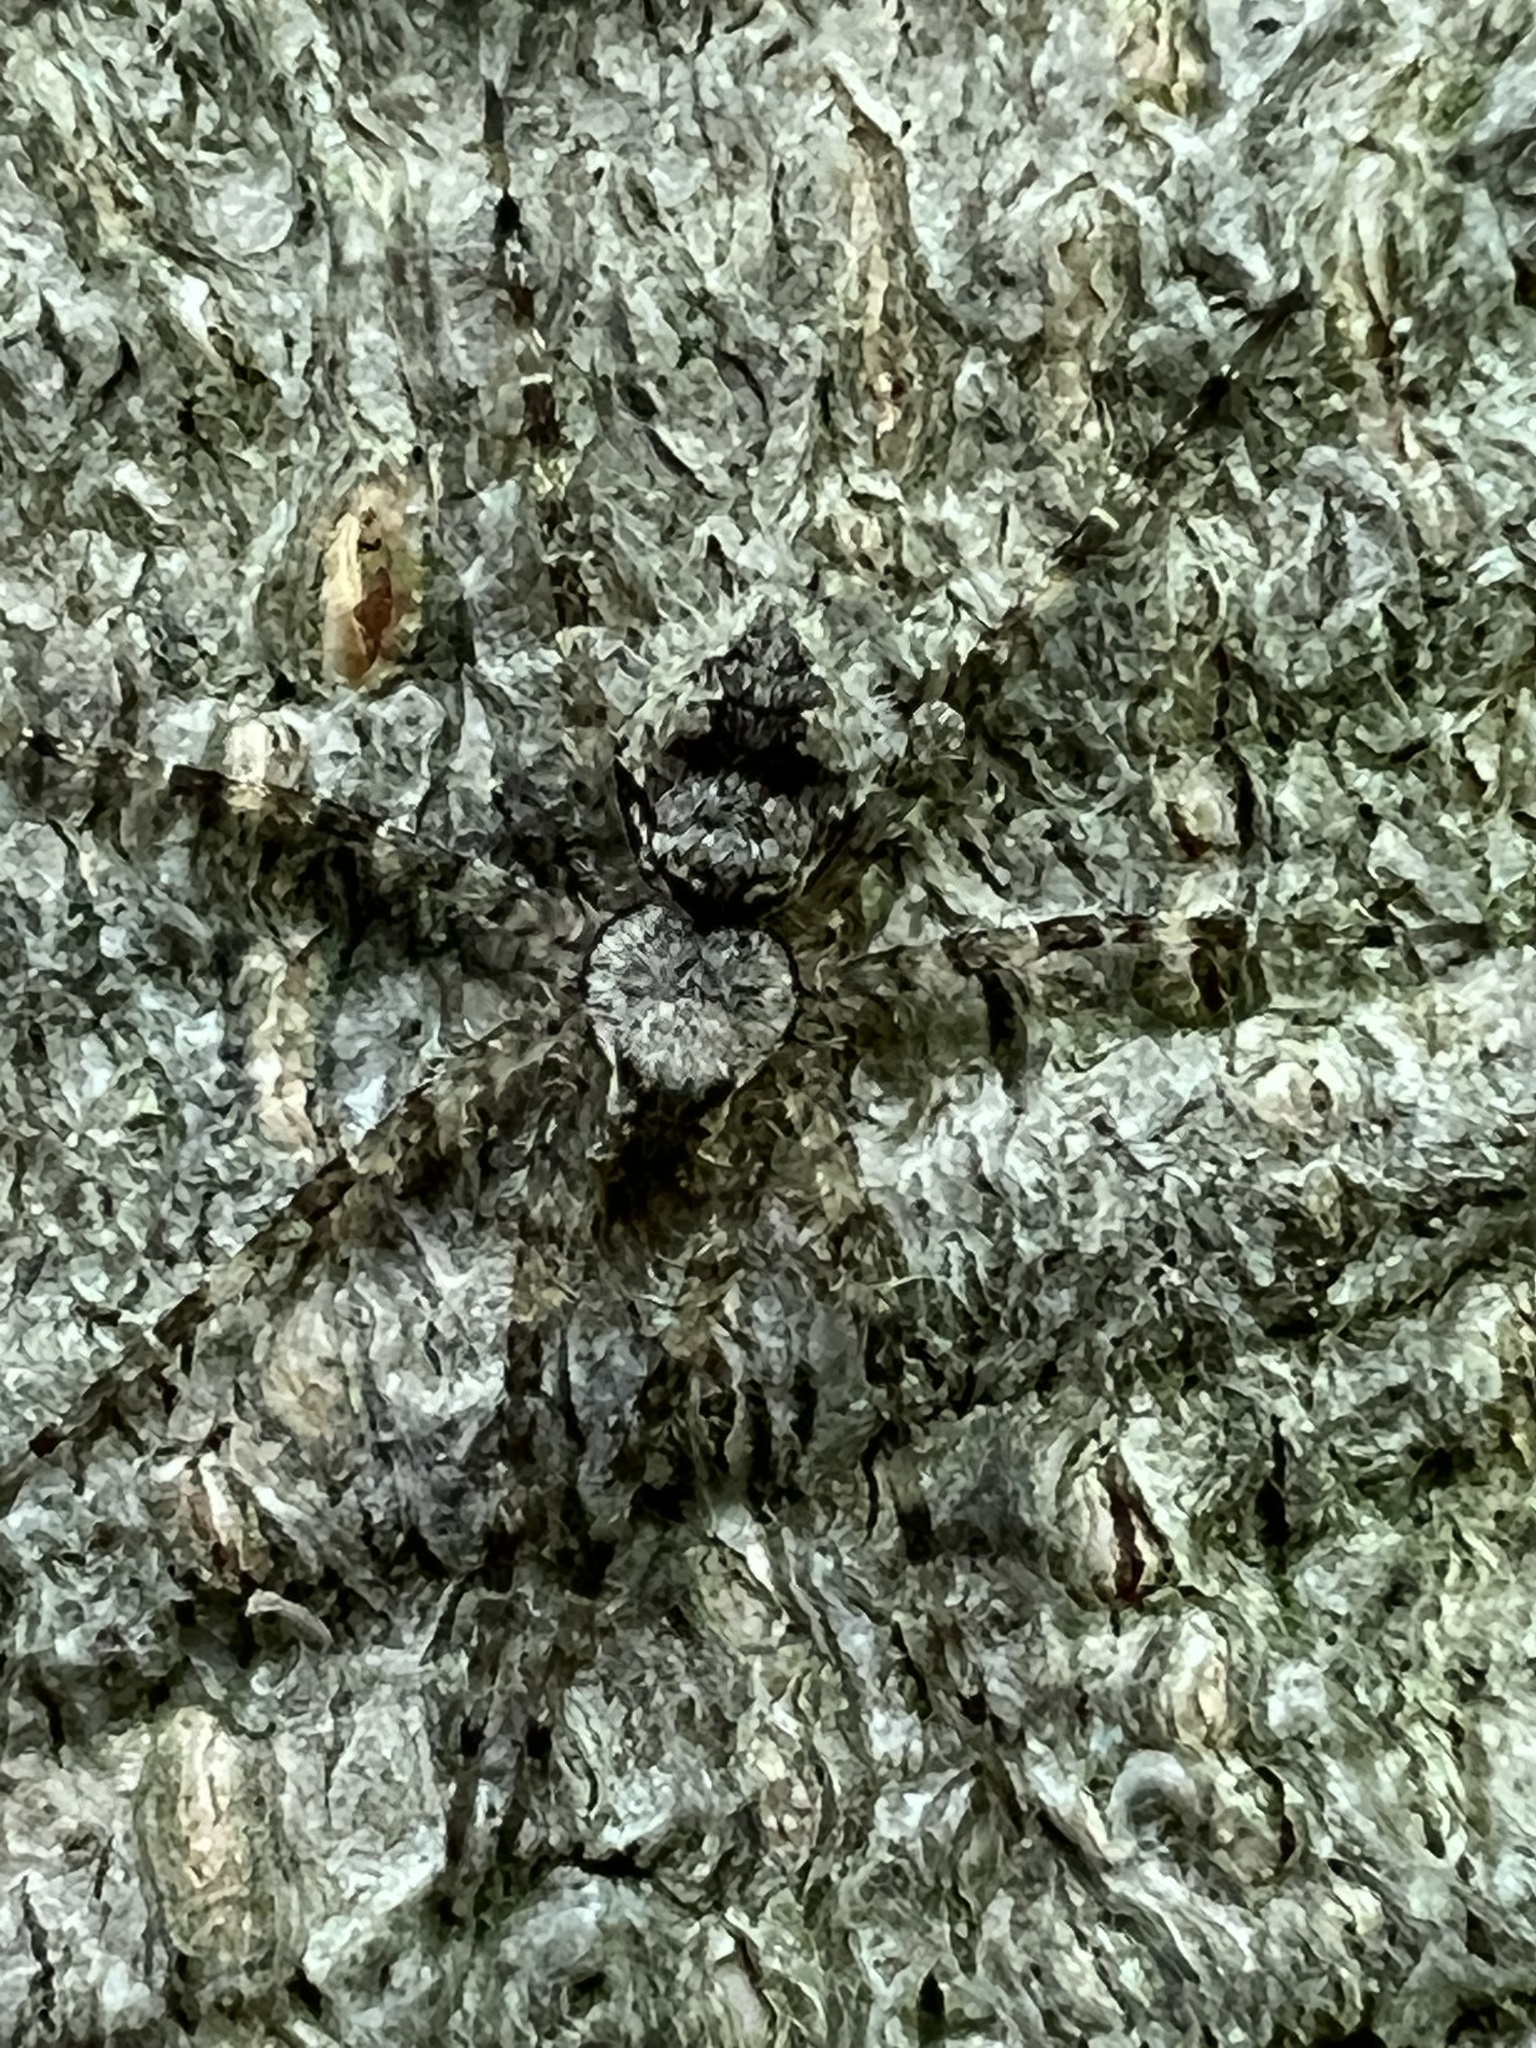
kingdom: Animalia
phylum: Arthropoda
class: Arachnida
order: Araneae
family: Pisauridae
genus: Dolomedes
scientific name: Dolomedes albineus
